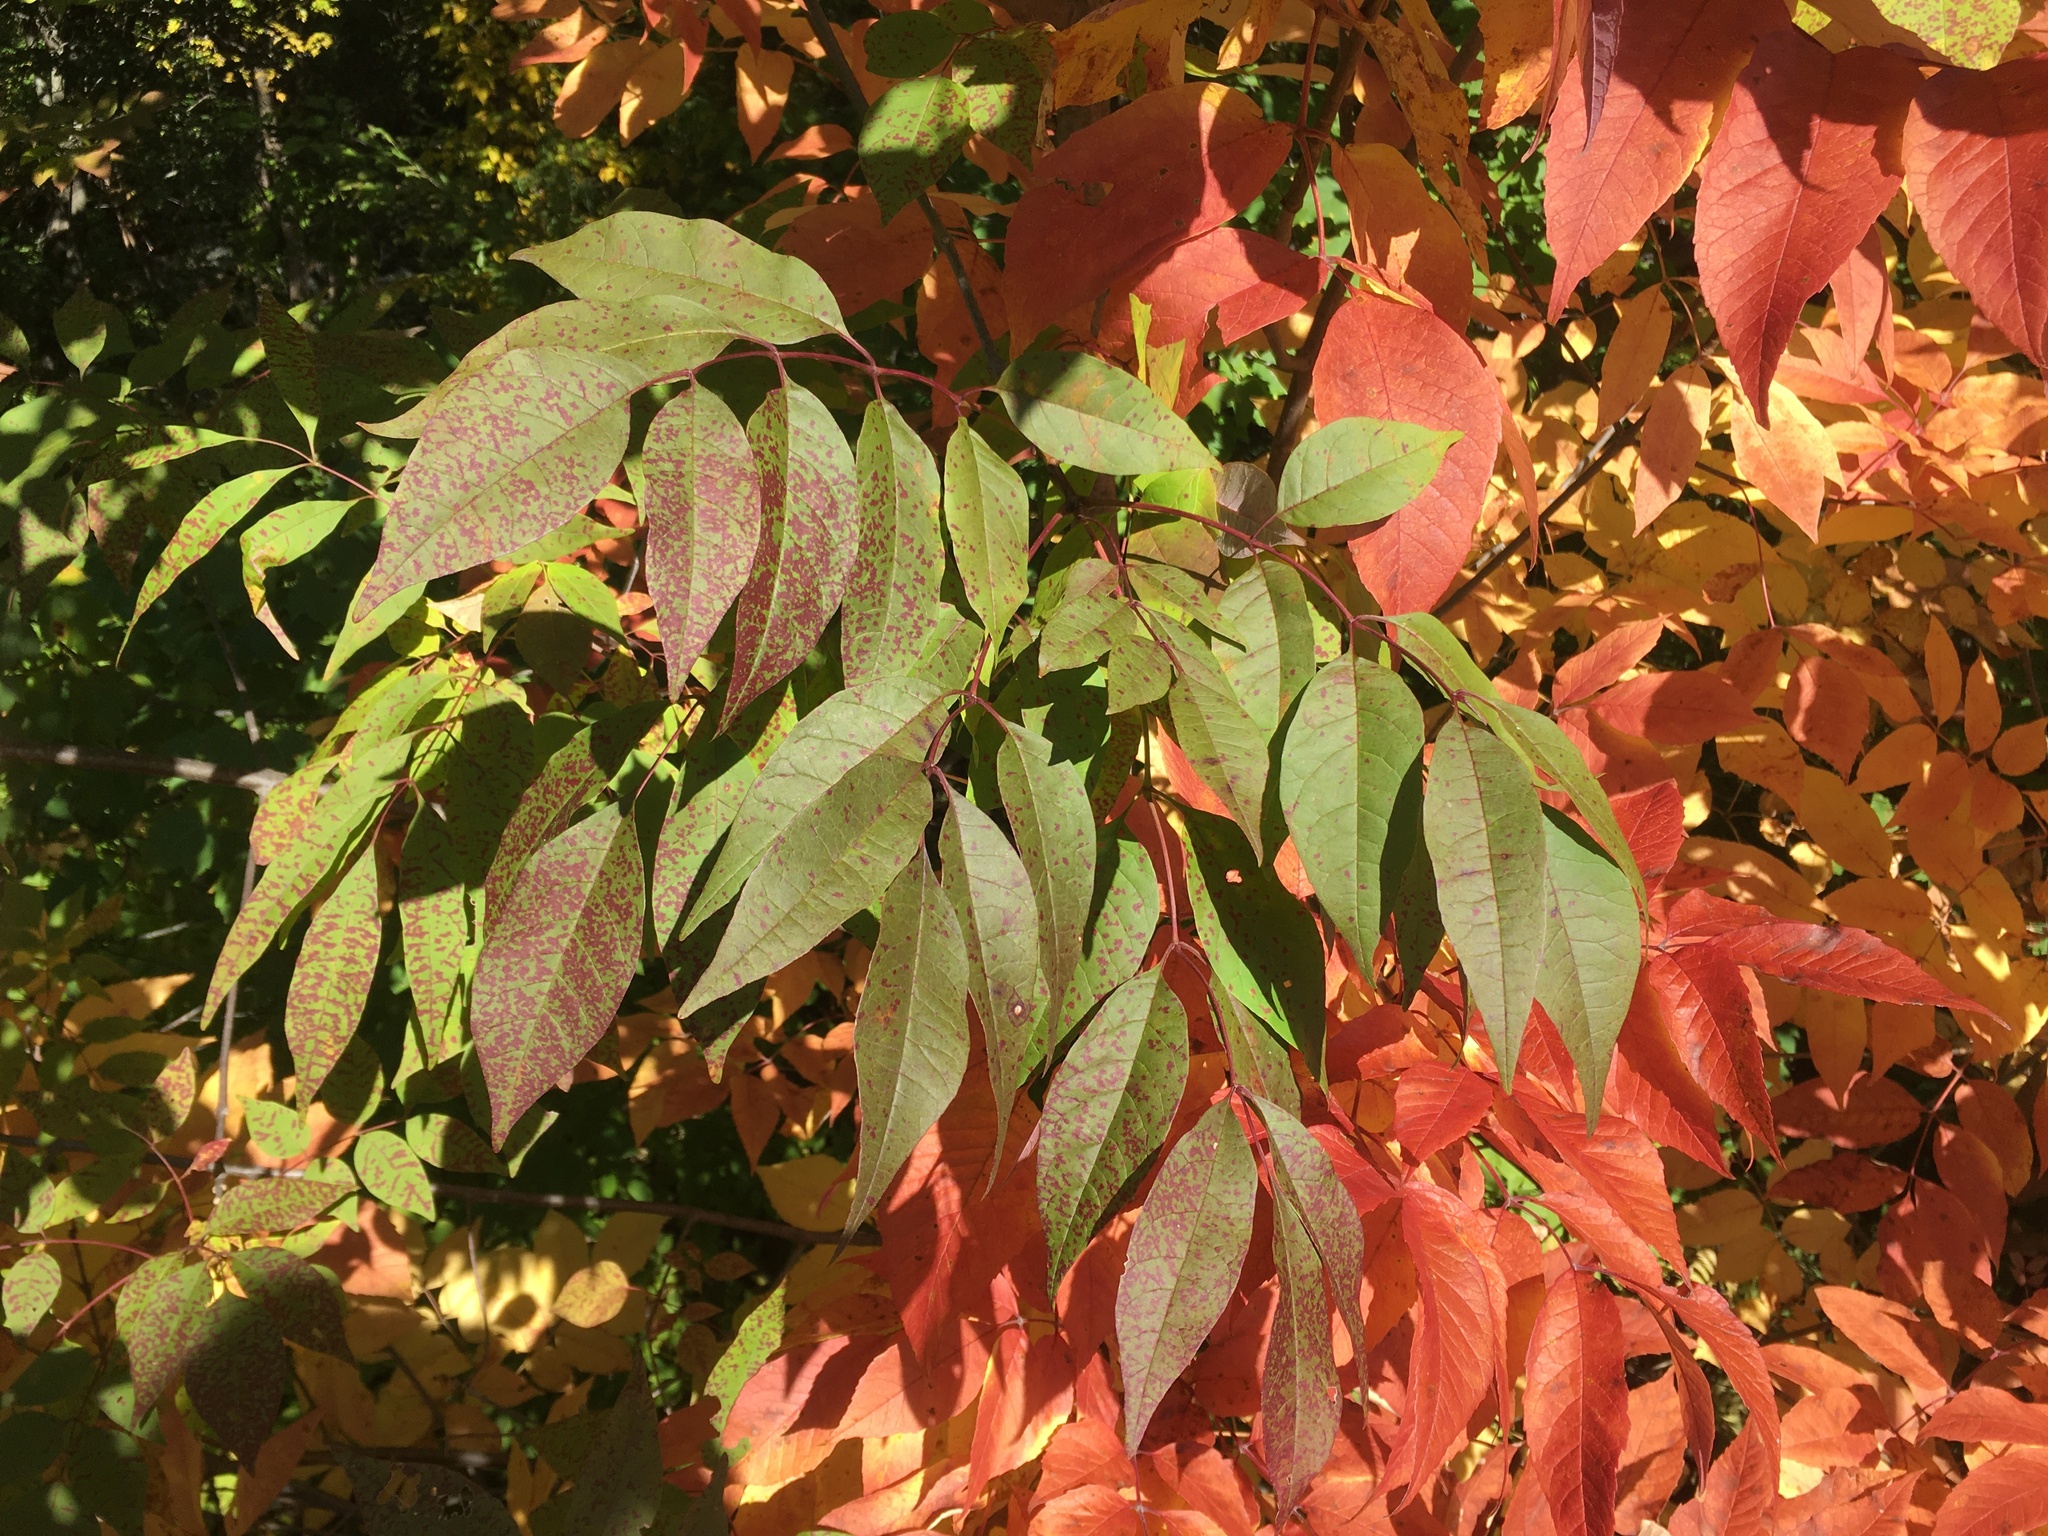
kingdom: Plantae
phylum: Tracheophyta
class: Magnoliopsida
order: Lamiales
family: Oleaceae
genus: Fraxinus
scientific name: Fraxinus americana
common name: White ash
